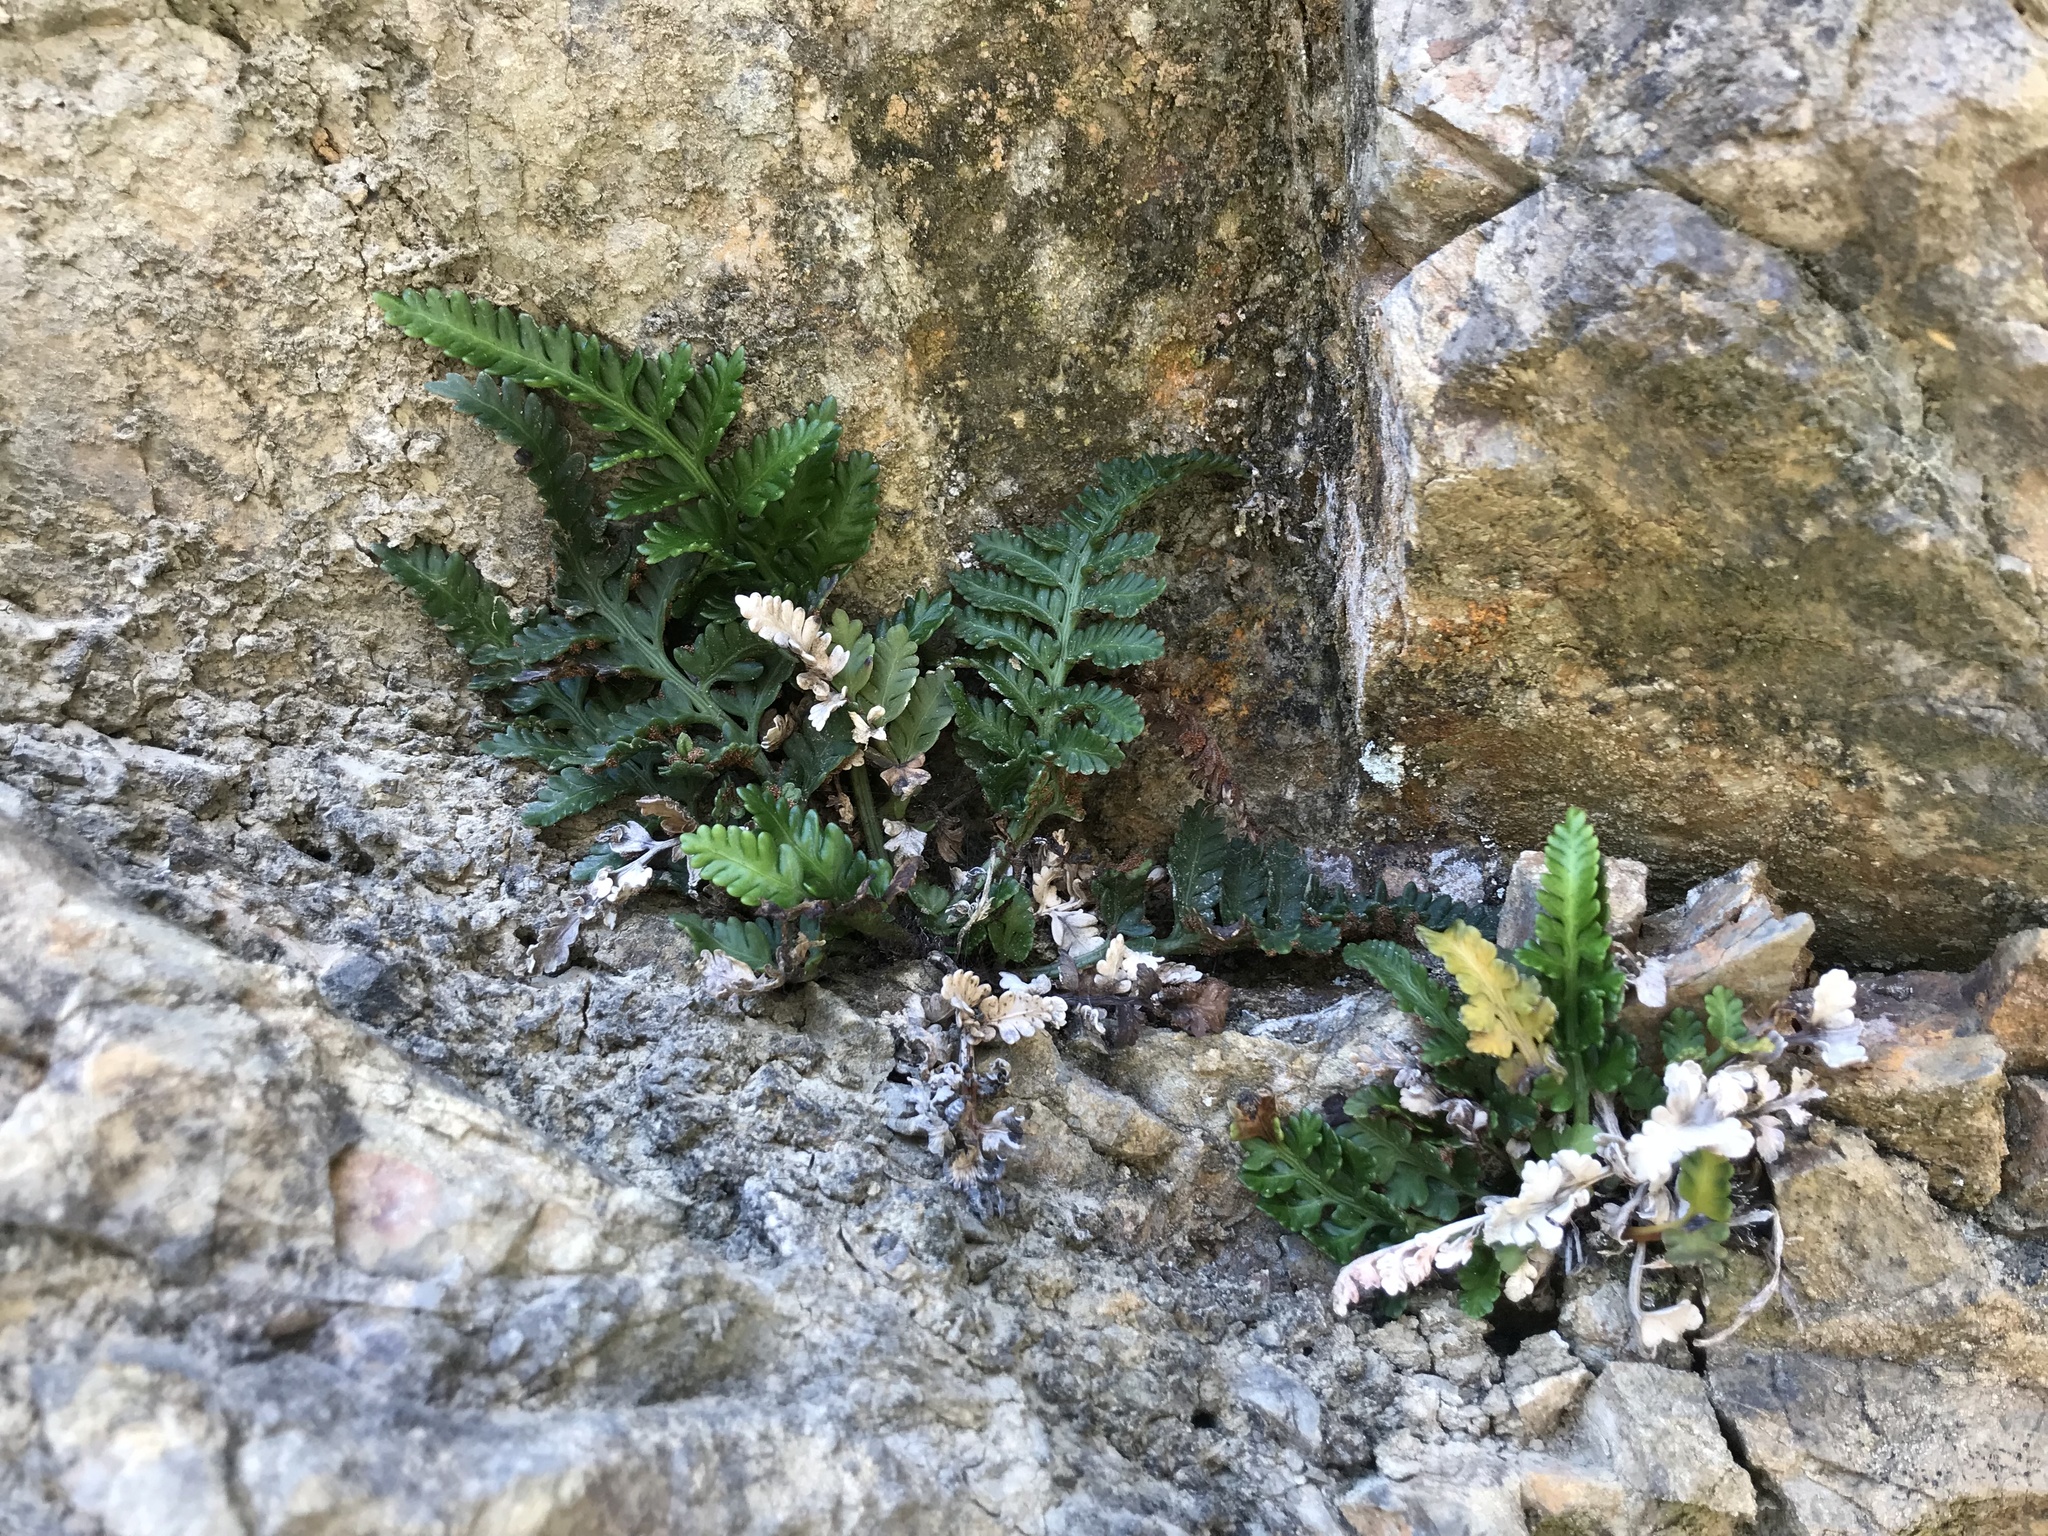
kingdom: Plantae
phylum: Tracheophyta
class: Polypodiopsida
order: Polypodiales
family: Aspleniaceae
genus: Asplenium
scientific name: Asplenium appendiculatum
